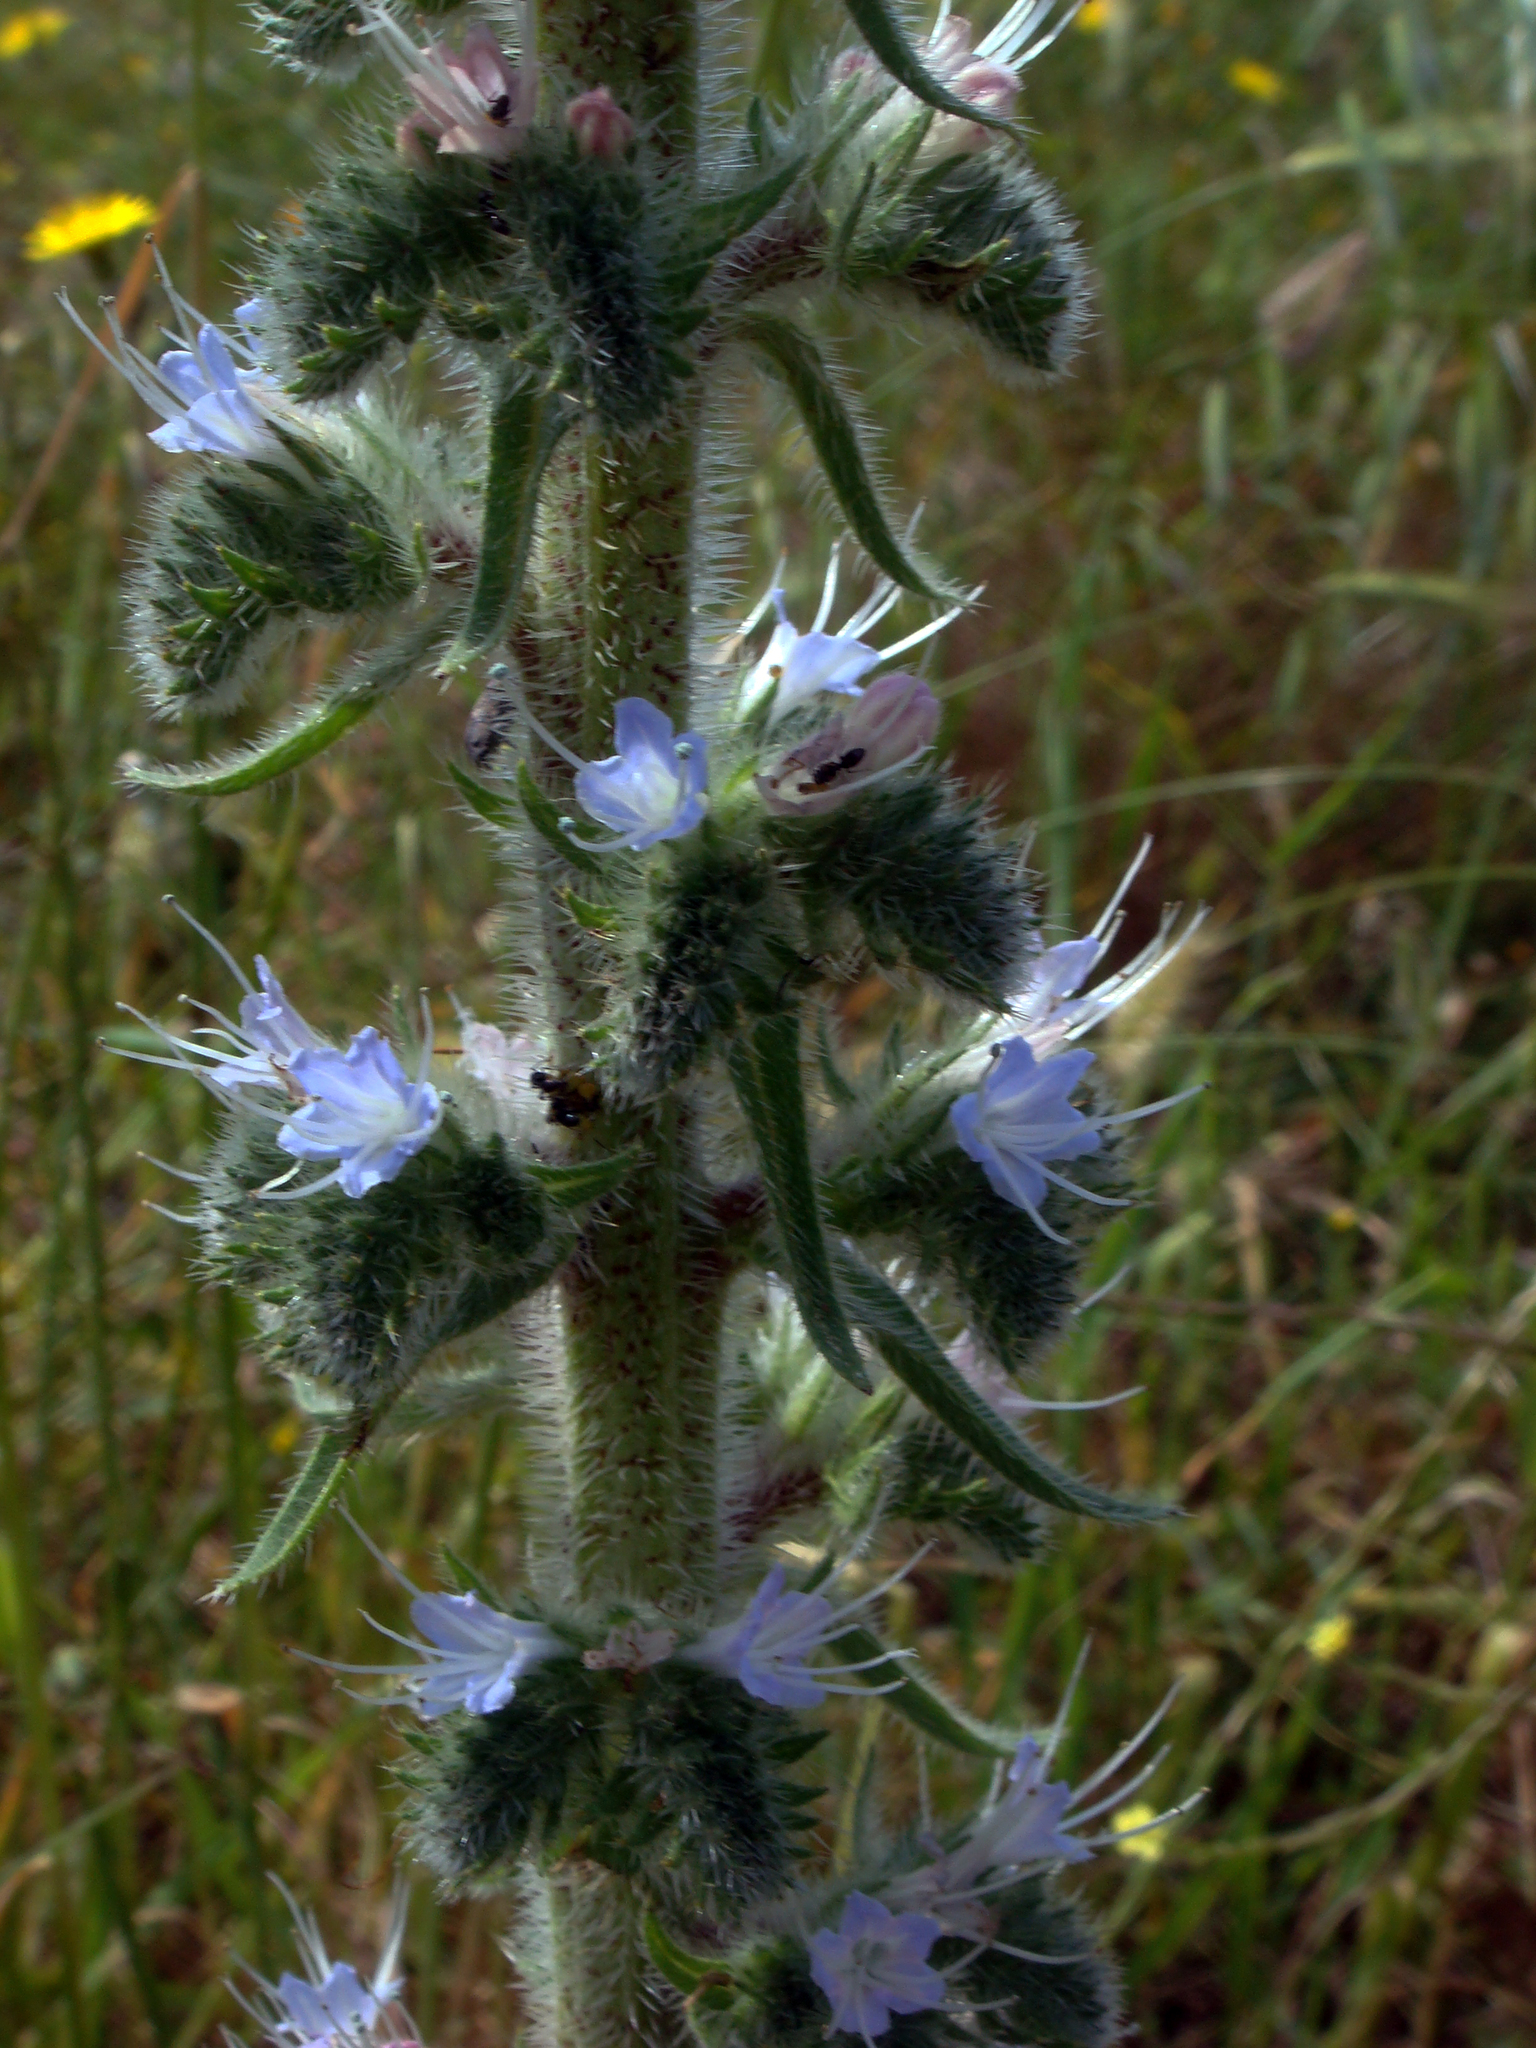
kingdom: Plantae
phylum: Tracheophyta
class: Magnoliopsida
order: Boraginales
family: Boraginaceae
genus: Echium
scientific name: Echium italicum
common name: Italian viper's bugloss
